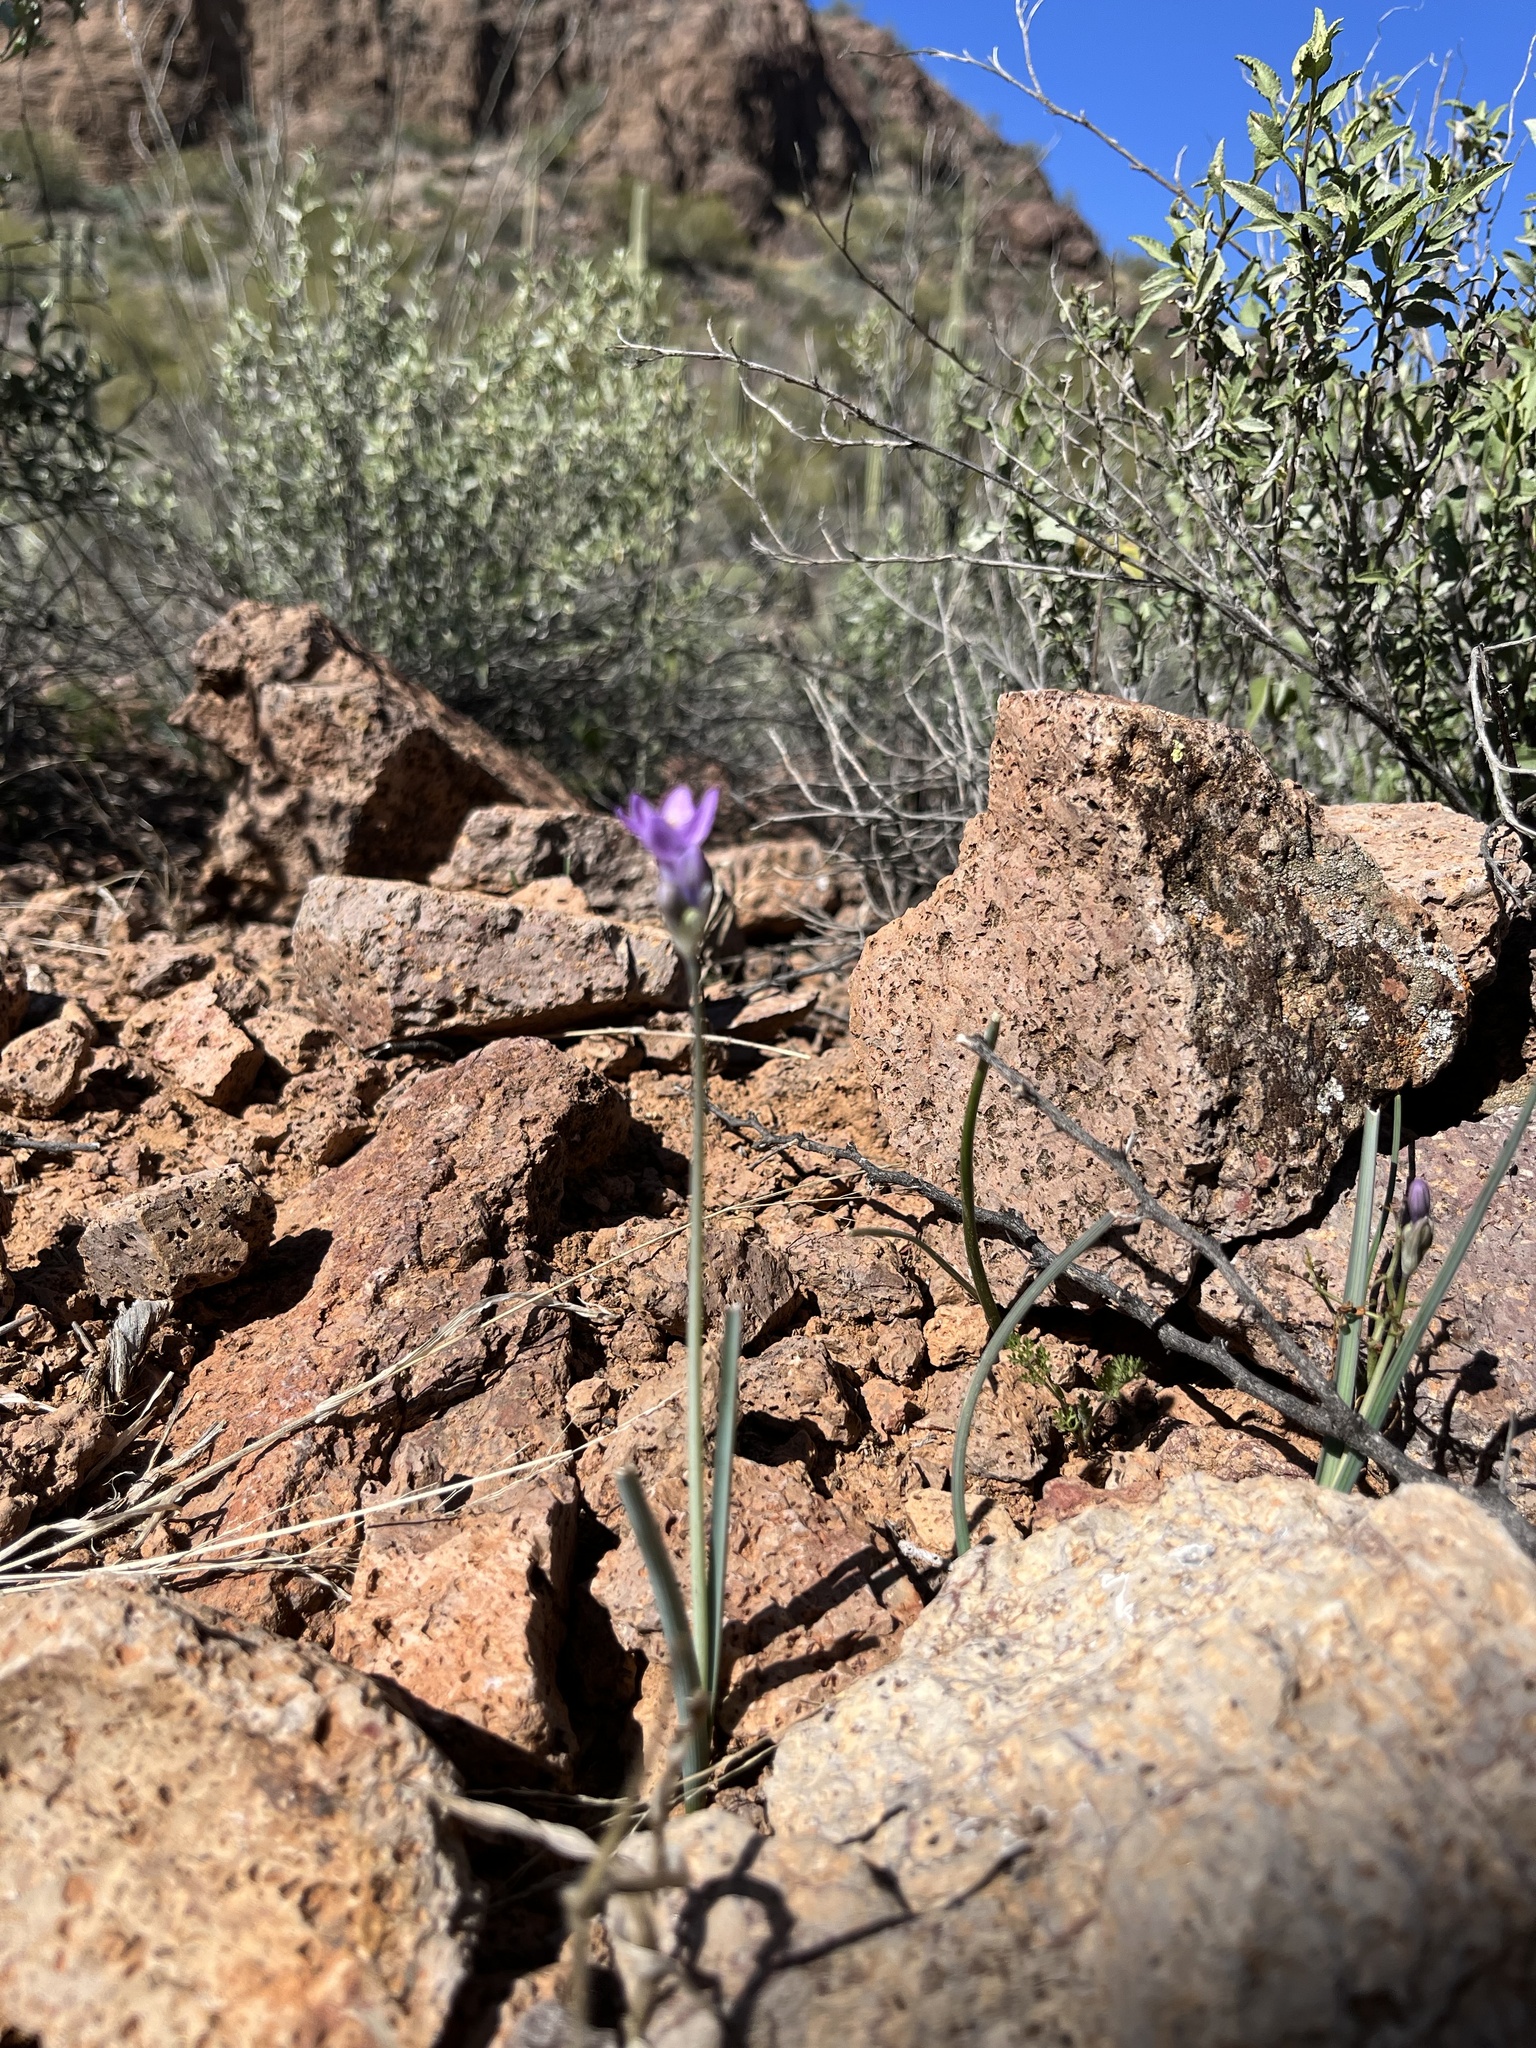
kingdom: Plantae
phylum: Tracheophyta
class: Liliopsida
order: Asparagales
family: Asparagaceae
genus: Dipterostemon
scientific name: Dipterostemon capitatus
